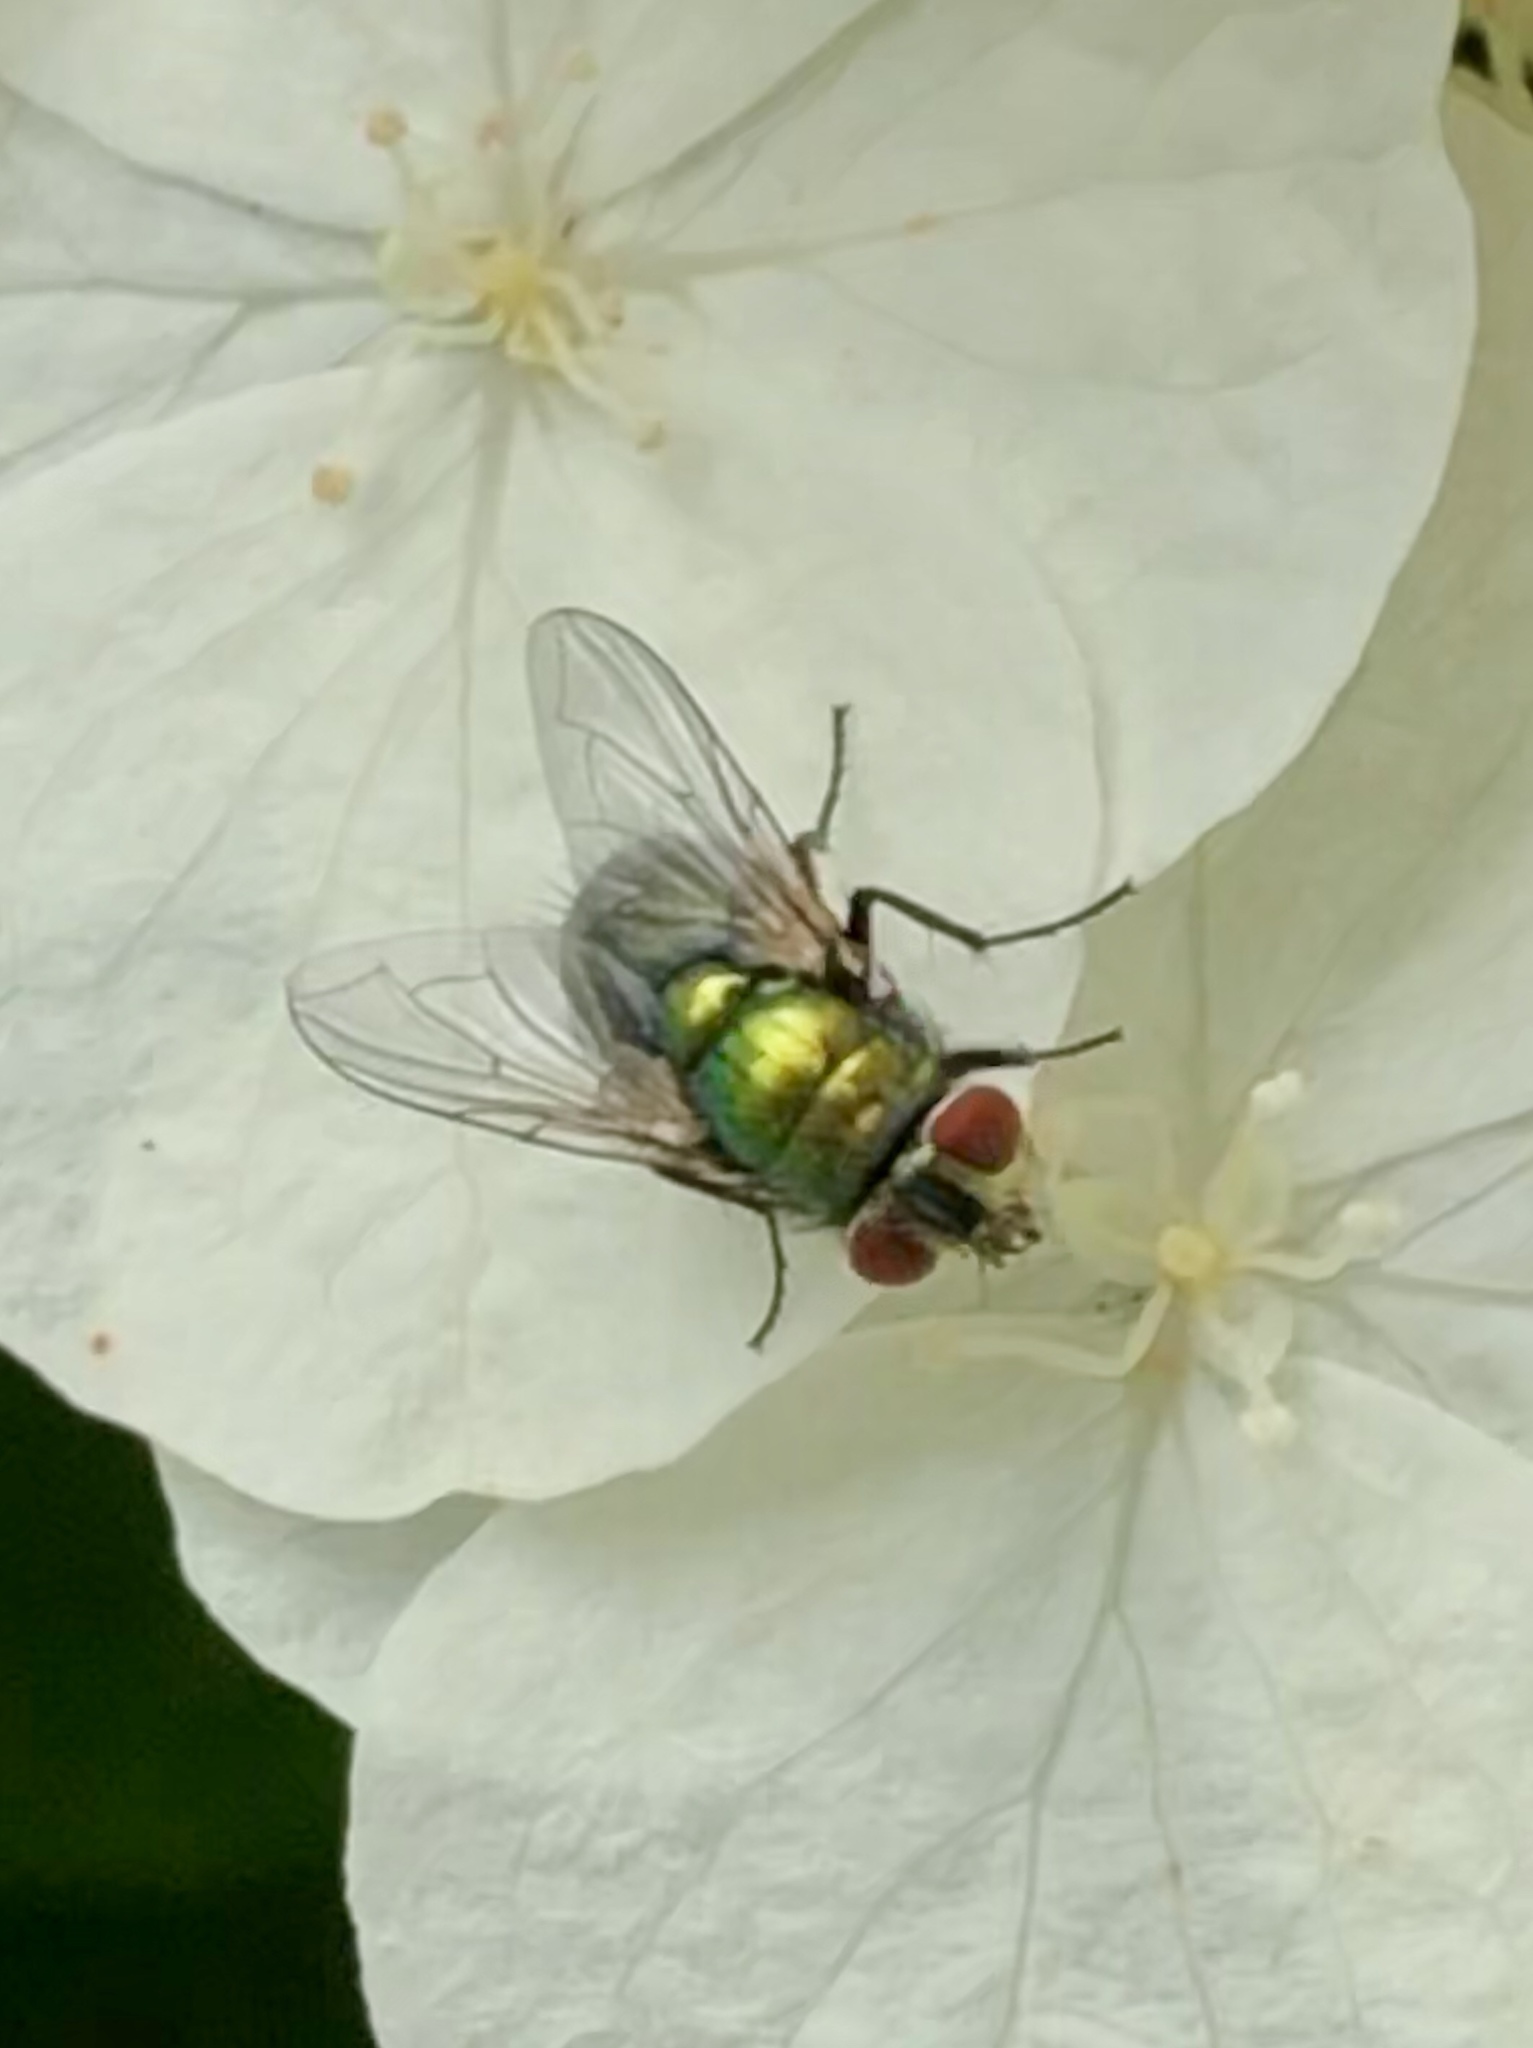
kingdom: Animalia
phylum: Arthropoda
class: Insecta
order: Diptera
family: Calliphoridae
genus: Lucilia
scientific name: Lucilia sericata
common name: Blow fly
